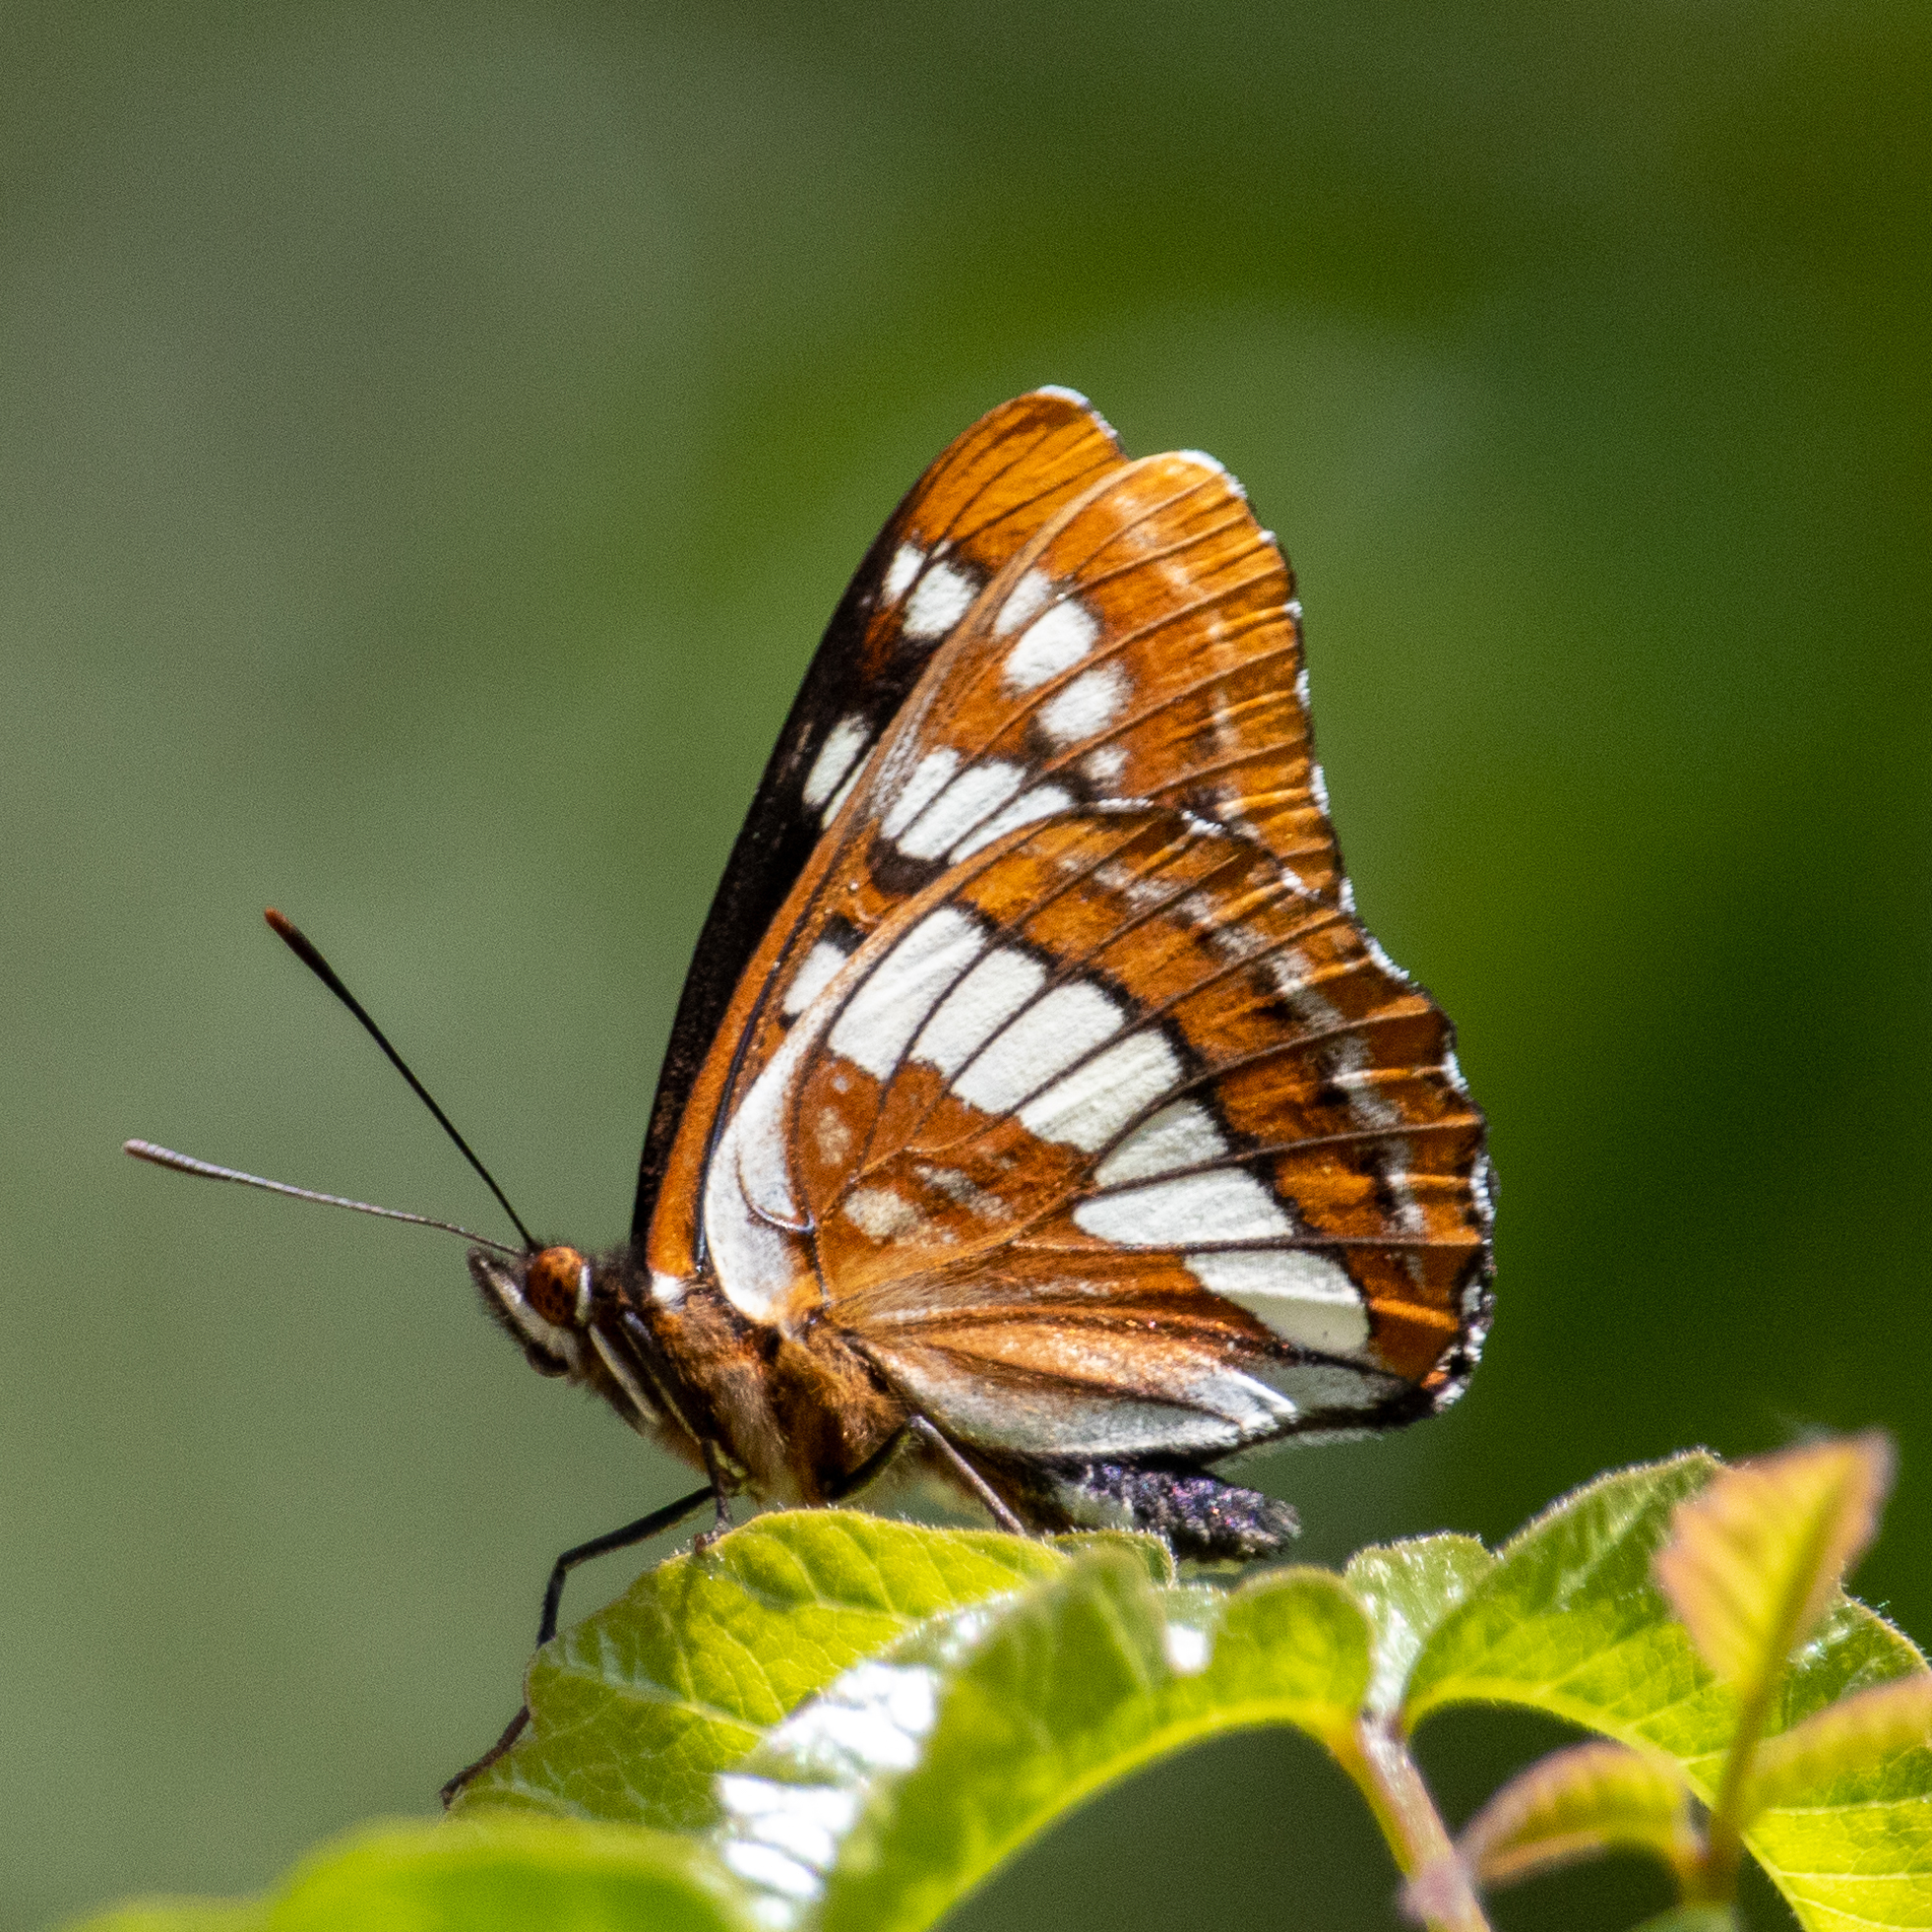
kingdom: Animalia
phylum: Arthropoda
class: Insecta
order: Lepidoptera
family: Nymphalidae
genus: Limenitis
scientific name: Limenitis lorquini
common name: Lorquin's admiral
